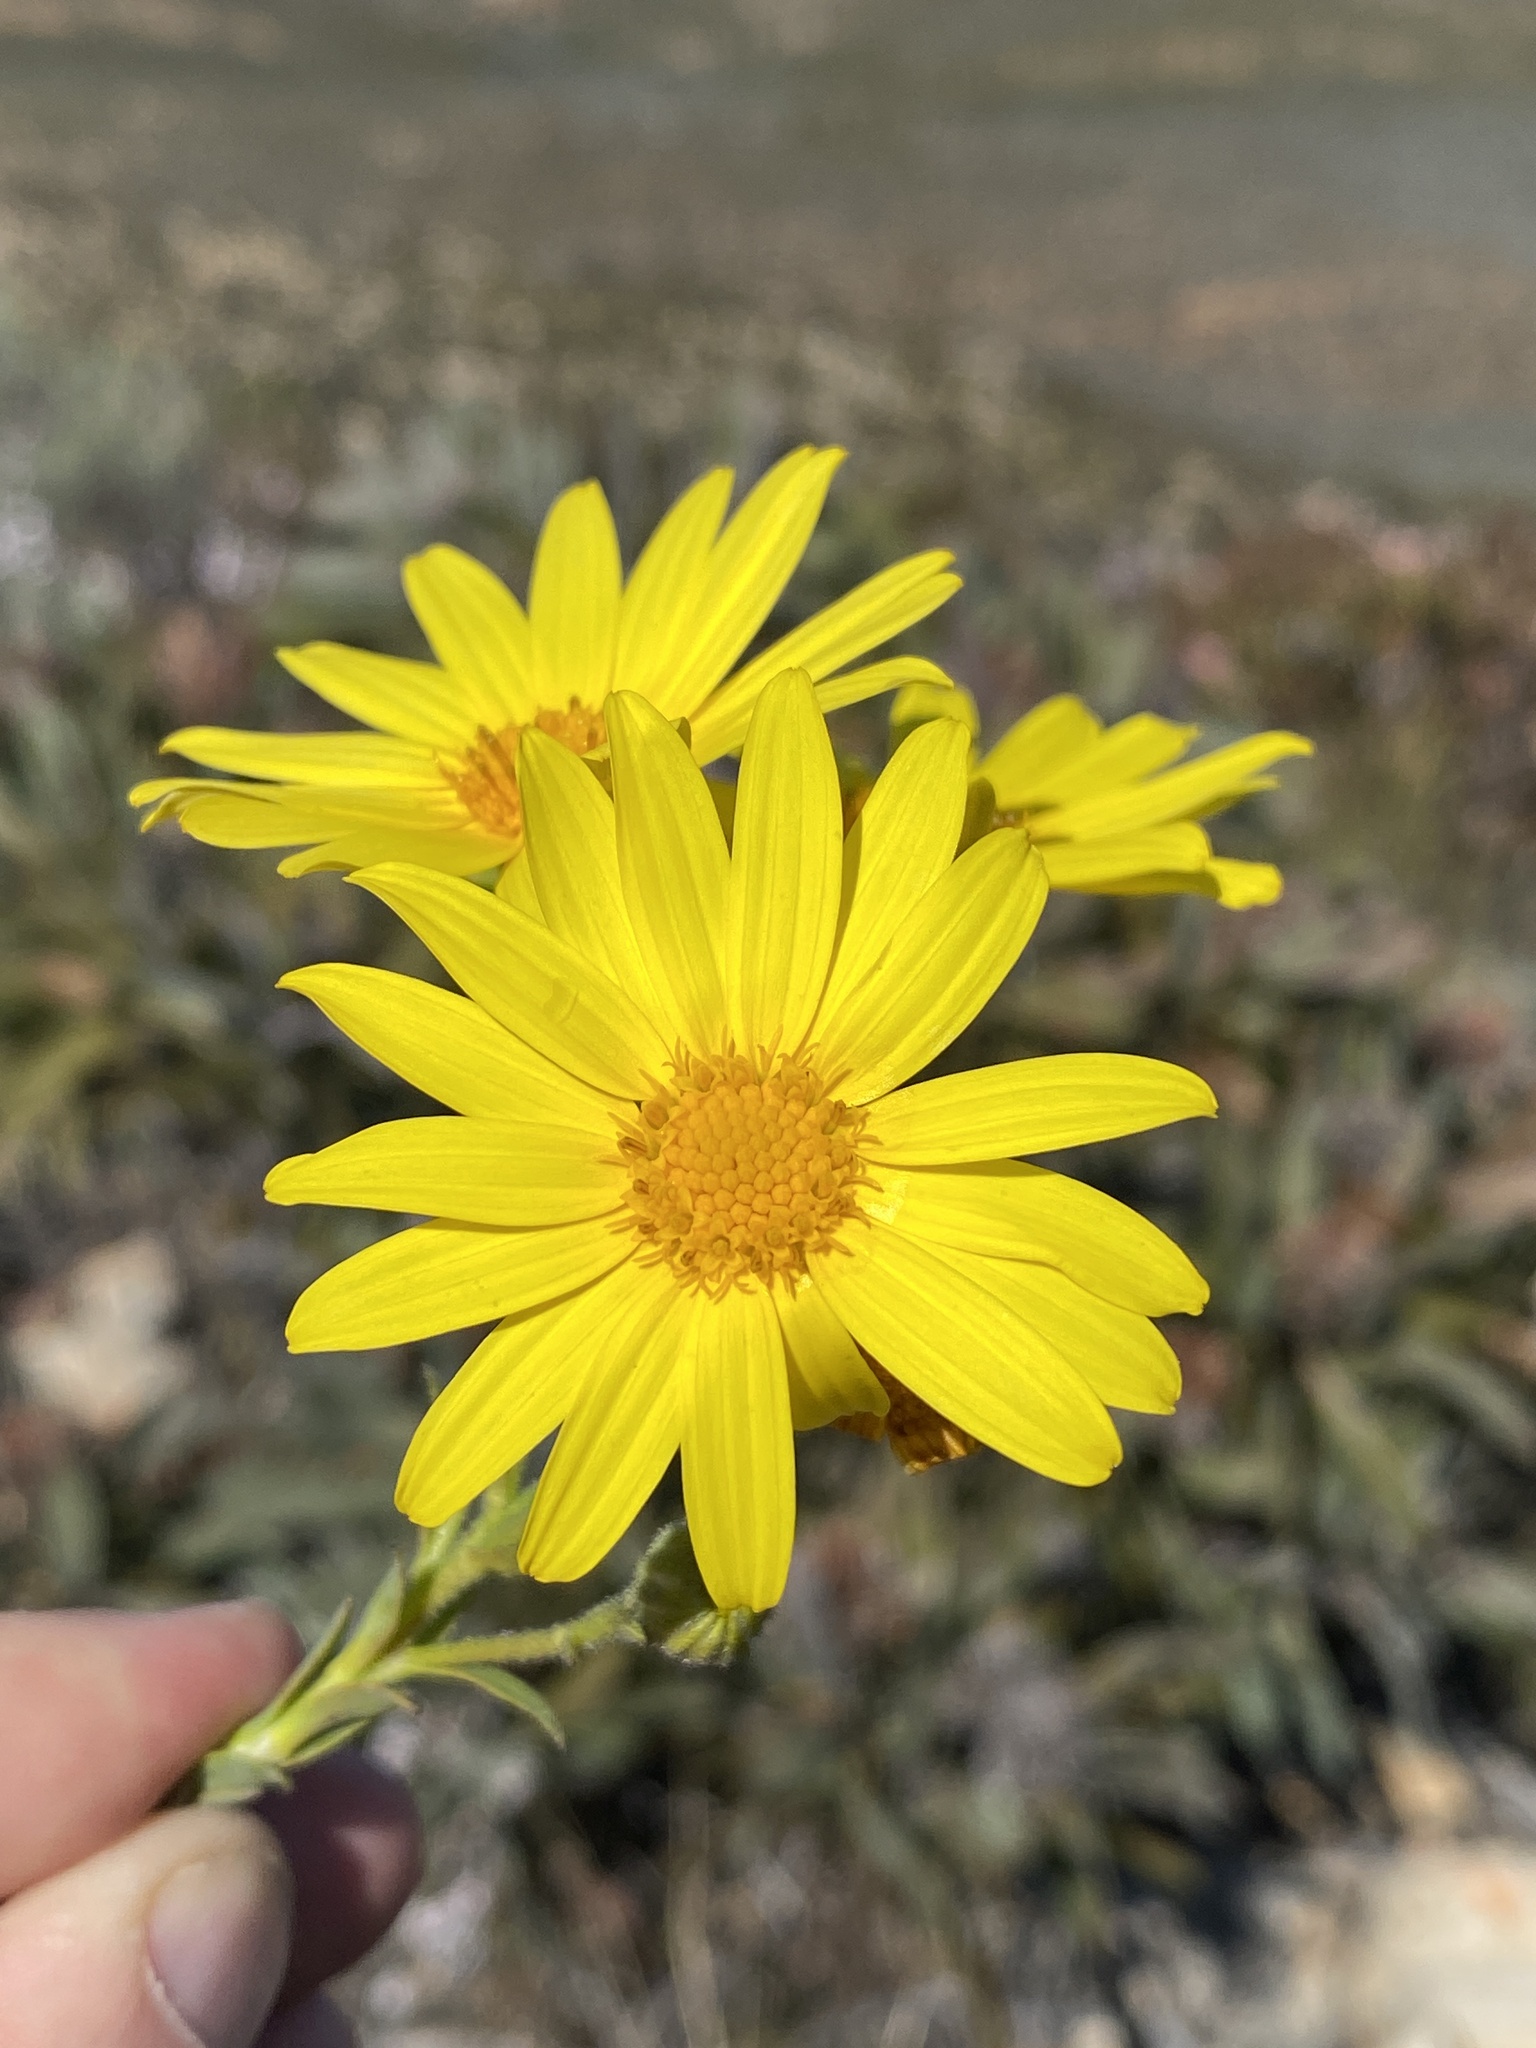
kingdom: Plantae
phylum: Tracheophyta
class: Magnoliopsida
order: Asterales
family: Asteraceae
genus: Osteospermum
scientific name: Osteospermum polygaloides
